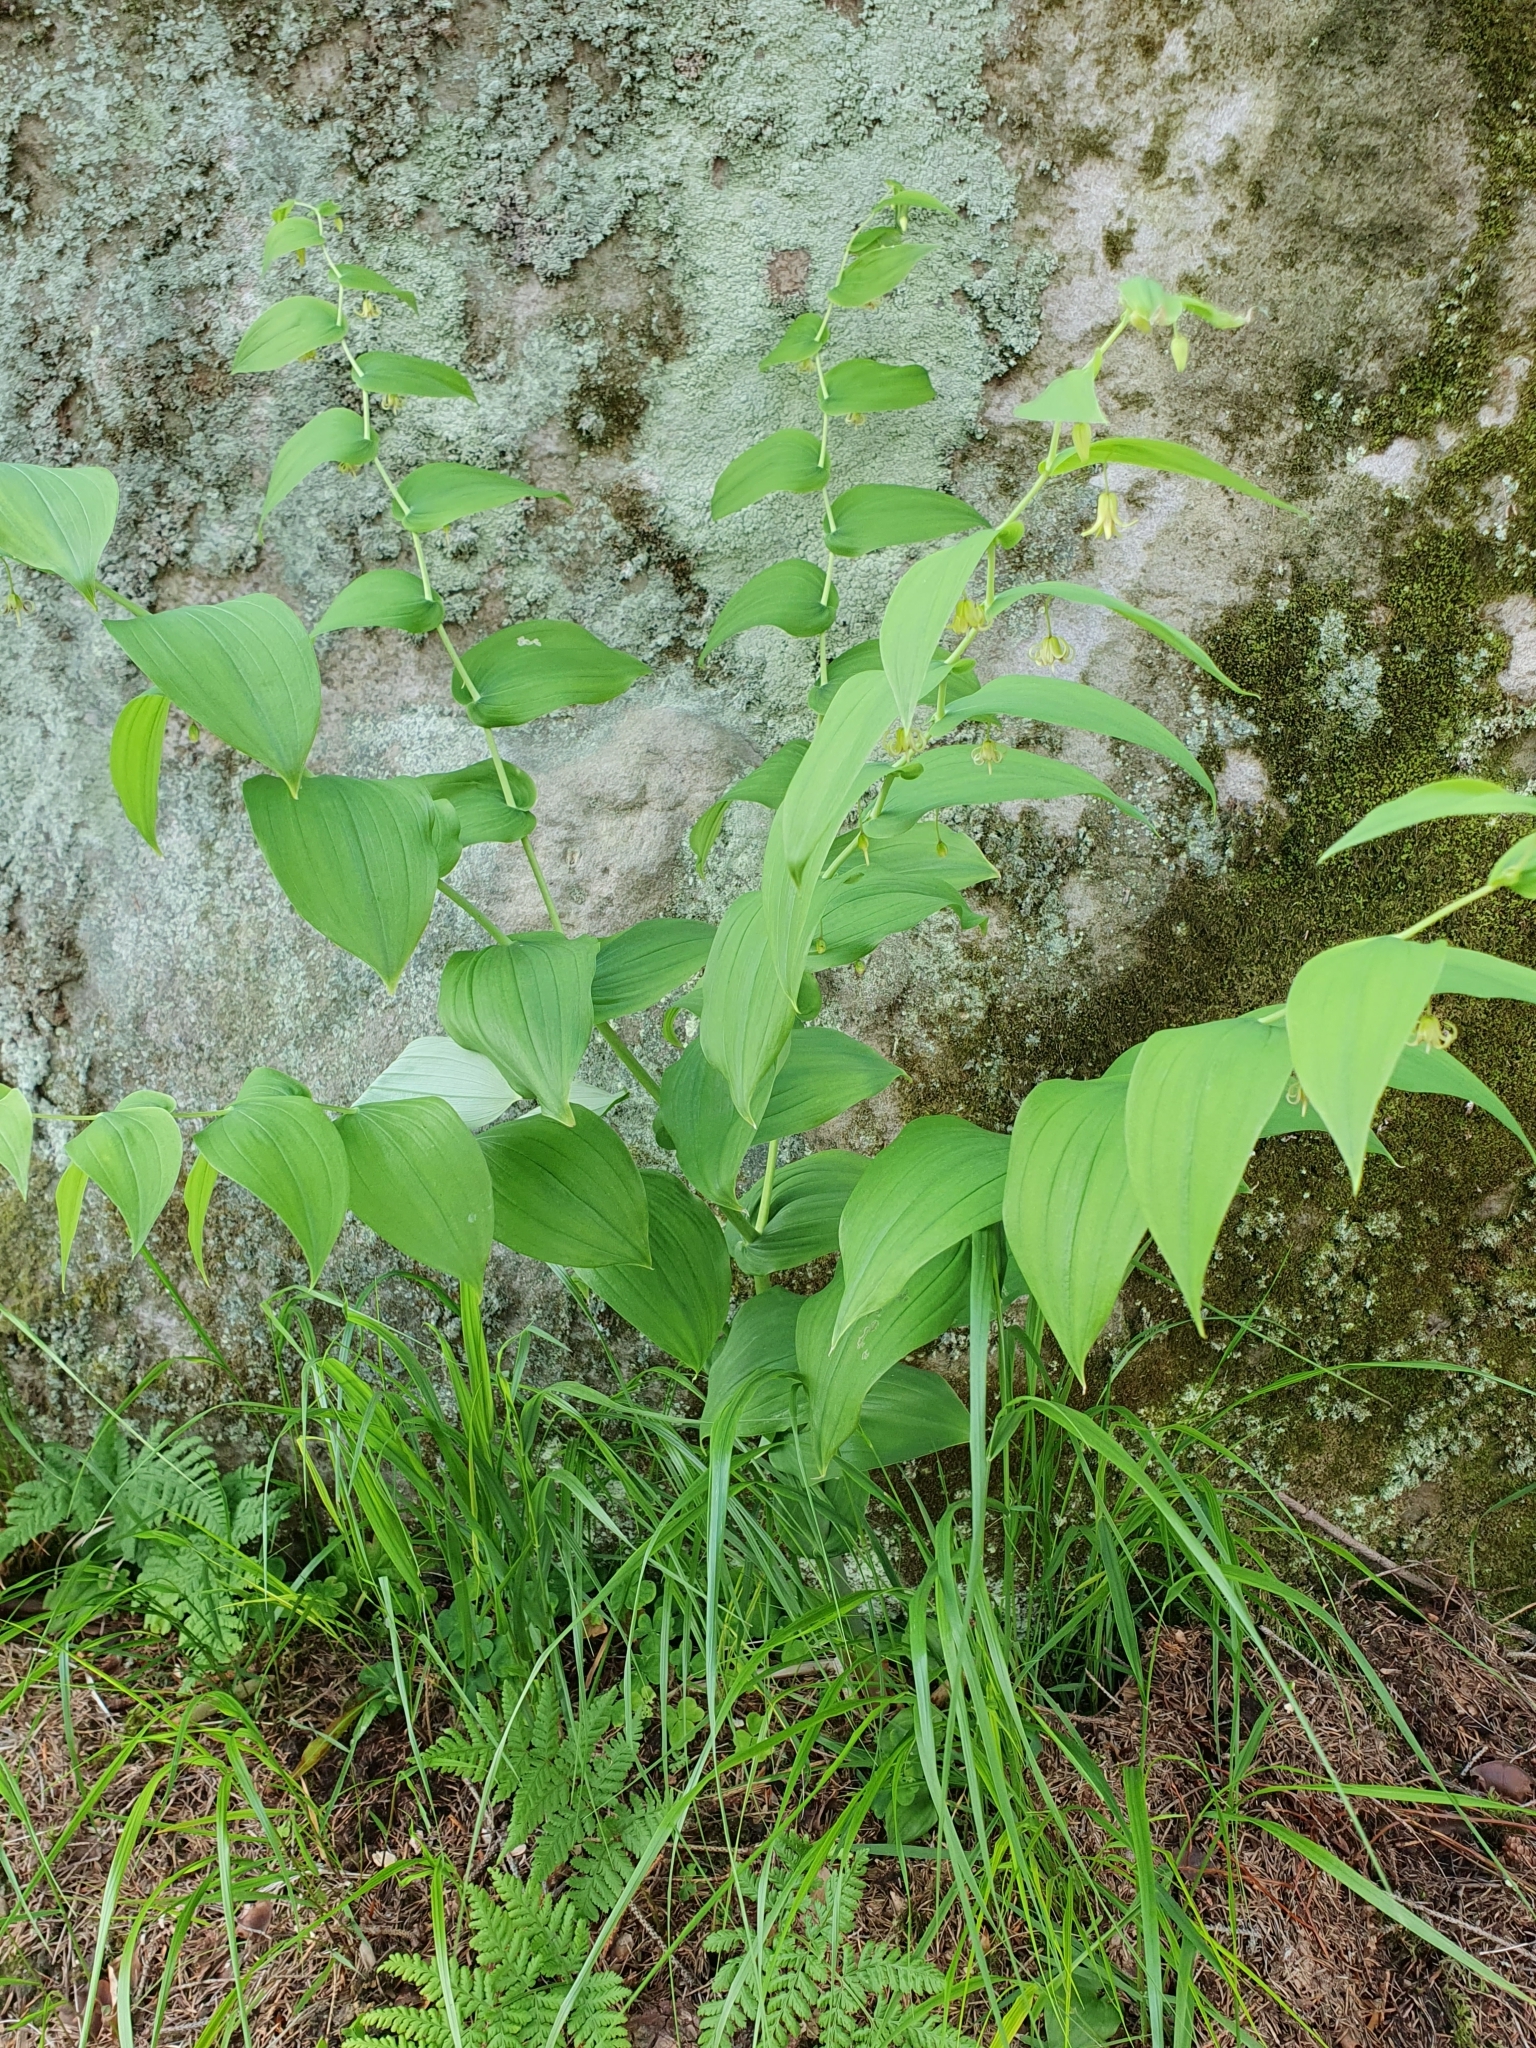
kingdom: Plantae
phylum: Tracheophyta
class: Liliopsida
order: Liliales
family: Liliaceae
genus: Streptopus
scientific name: Streptopus amplexifolius
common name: Clasp twisted stalk
